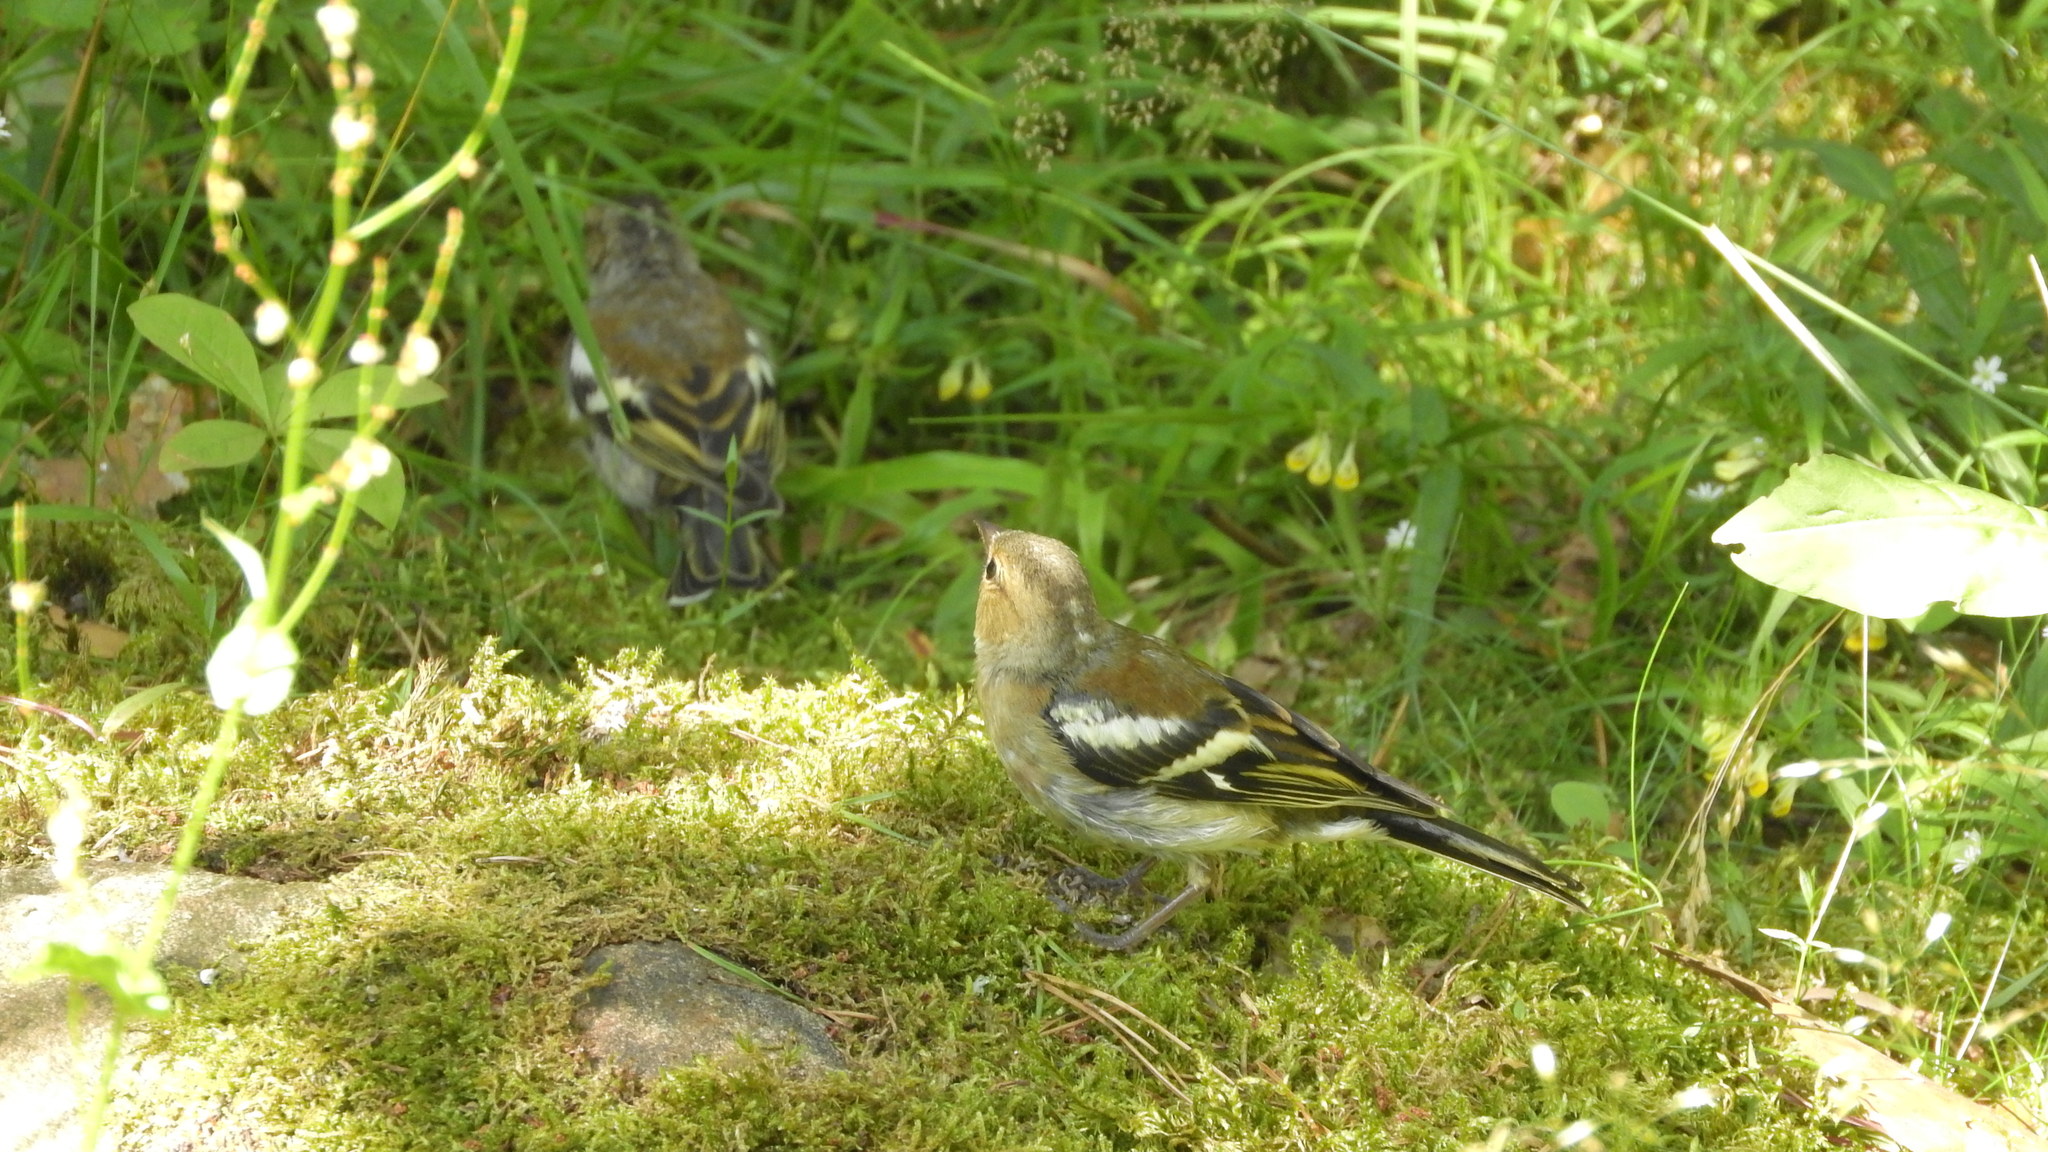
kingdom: Animalia
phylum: Chordata
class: Aves
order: Passeriformes
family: Fringillidae
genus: Fringilla
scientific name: Fringilla coelebs
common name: Common chaffinch
